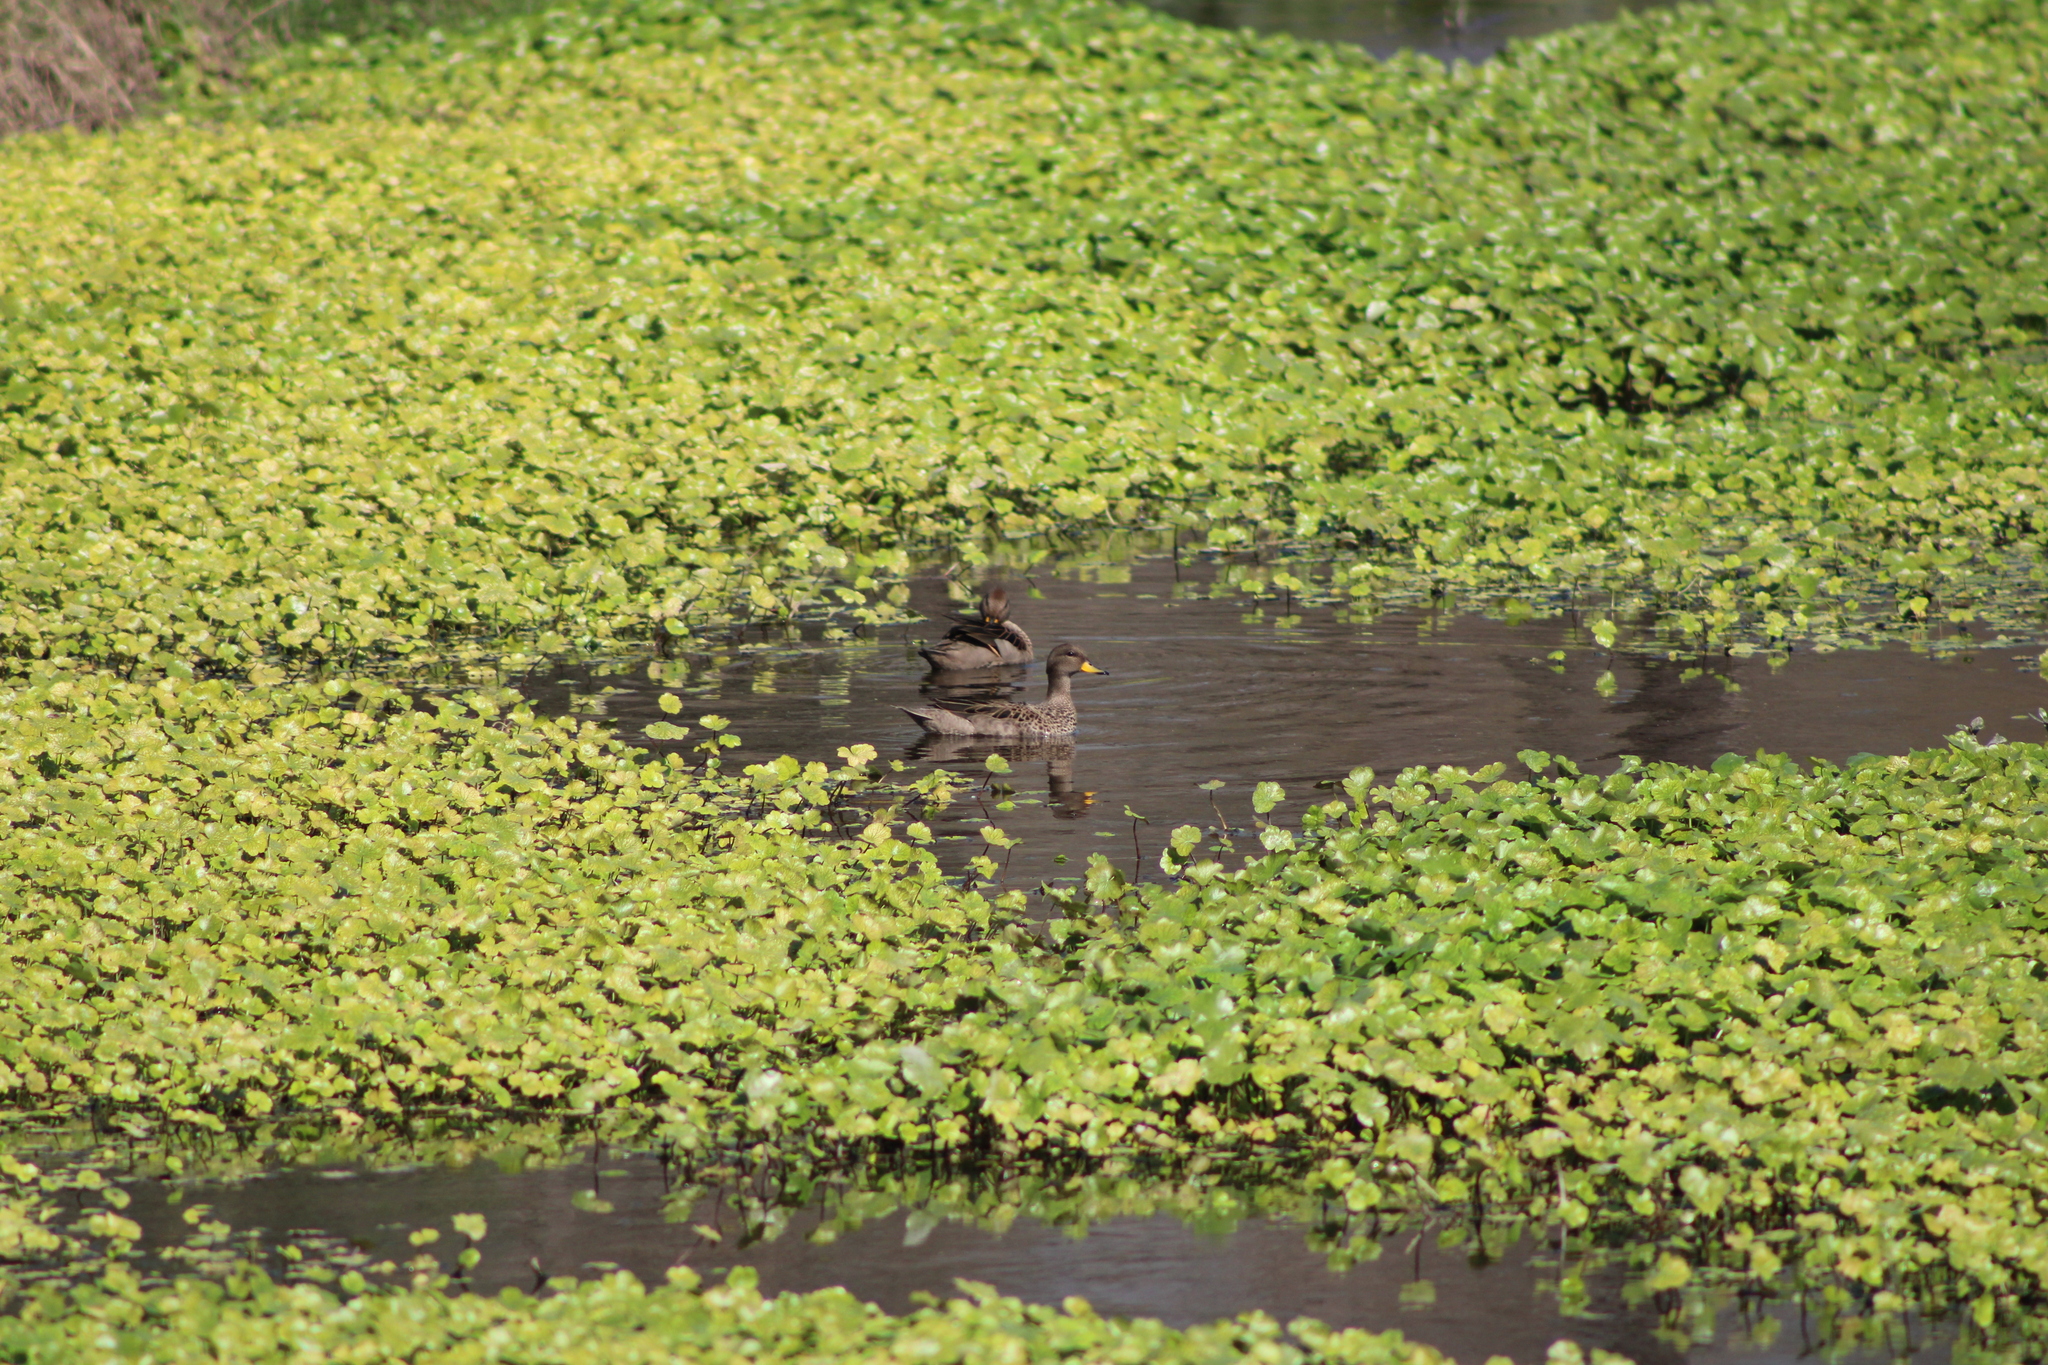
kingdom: Animalia
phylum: Chordata
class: Aves
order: Anseriformes
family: Anatidae
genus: Anas
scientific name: Anas flavirostris
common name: Yellow-billed teal
